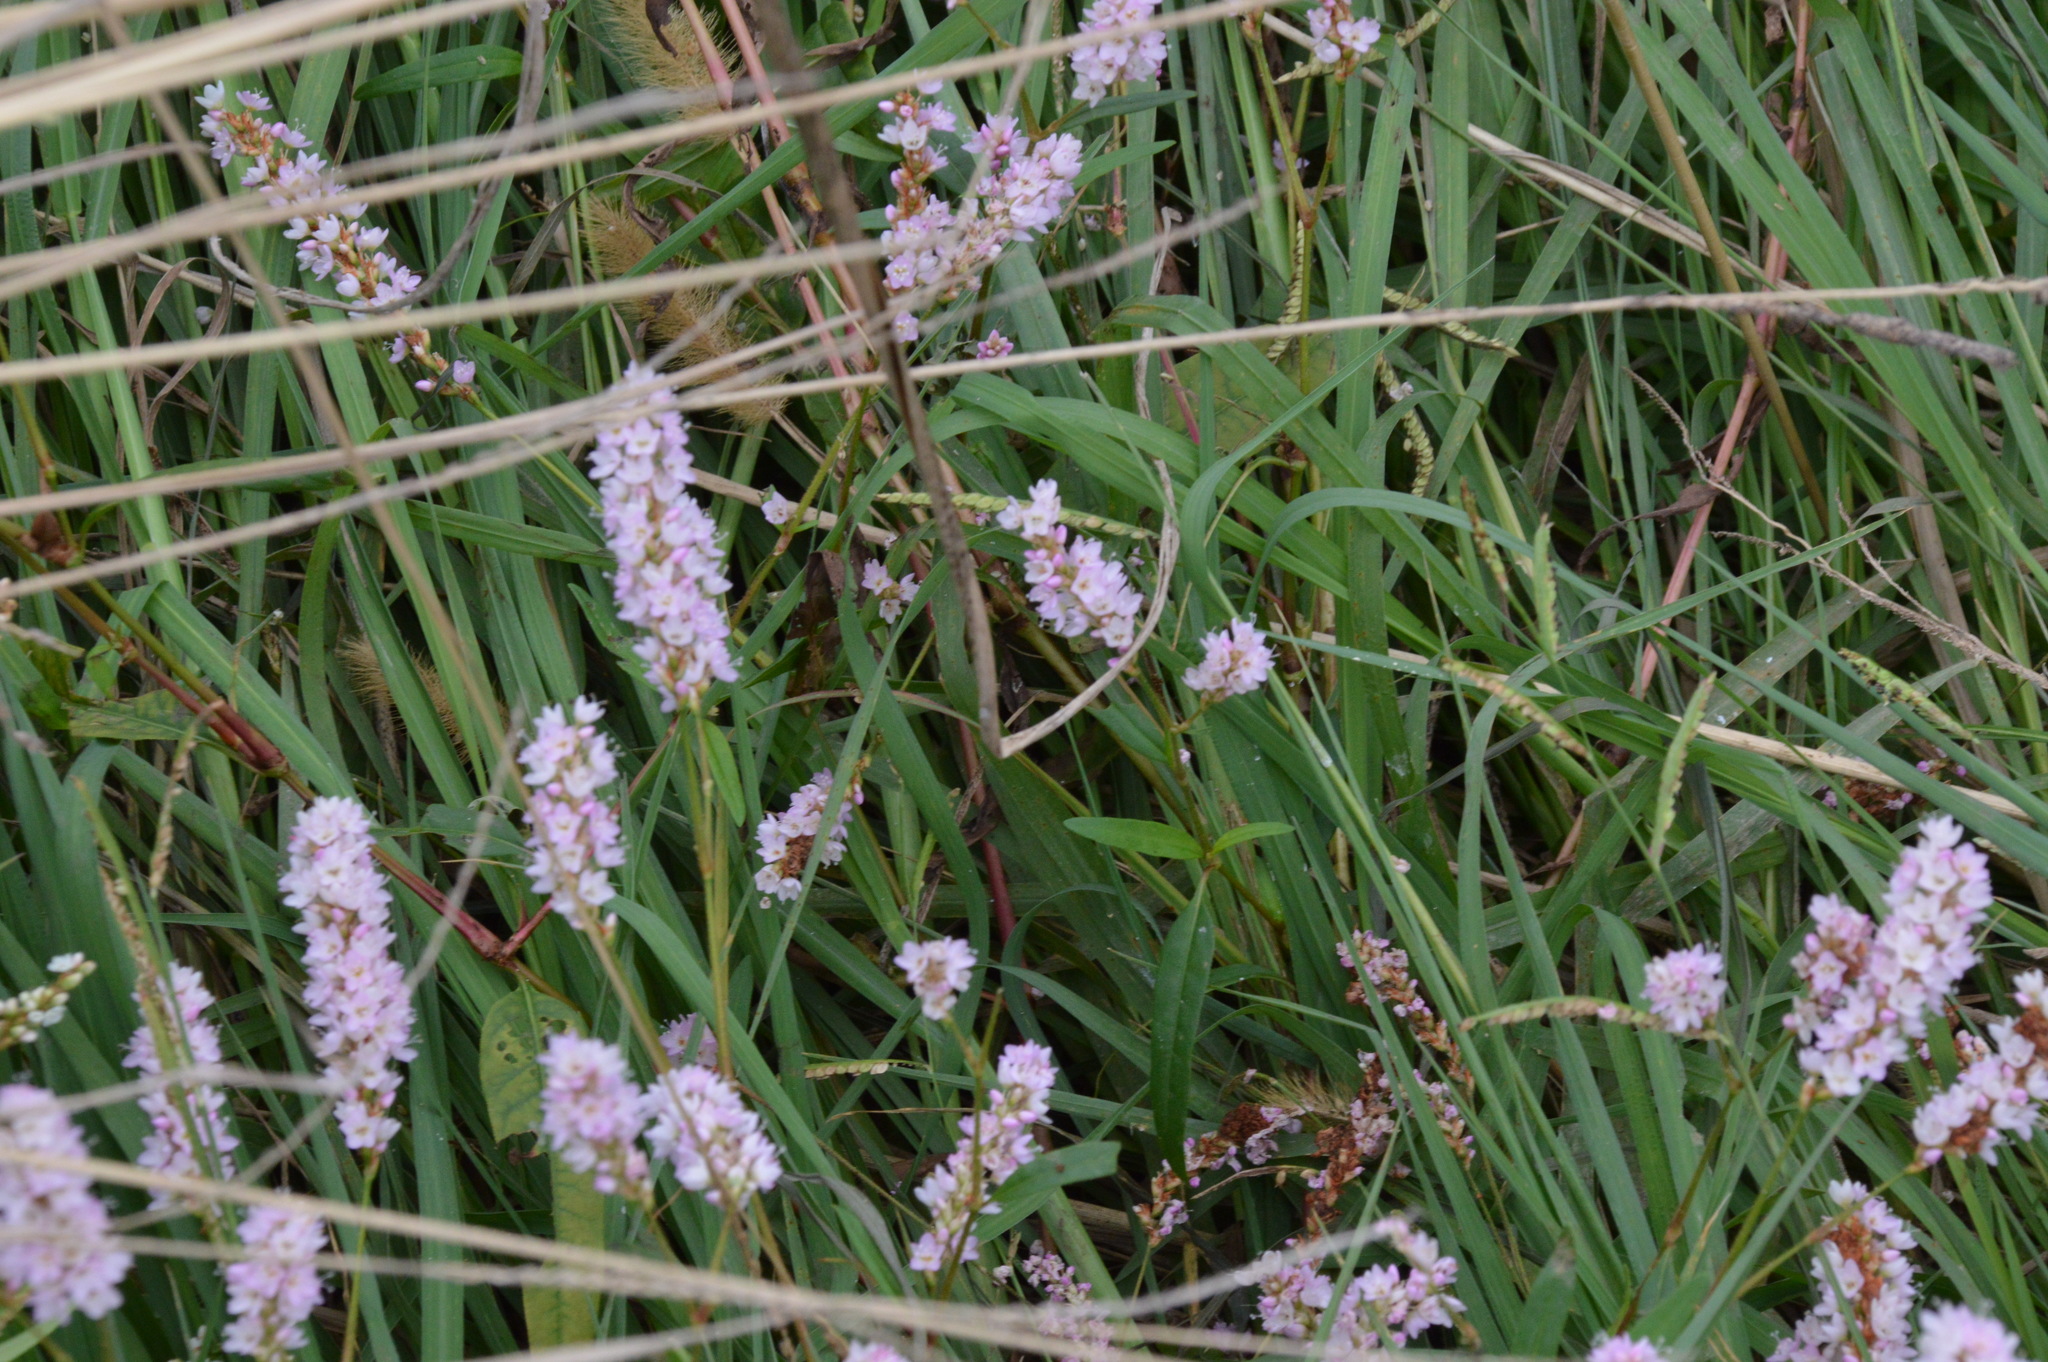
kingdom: Plantae
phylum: Tracheophyta
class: Magnoliopsida
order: Caryophyllales
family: Polygonaceae
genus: Persicaria
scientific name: Persicaria bicornis
